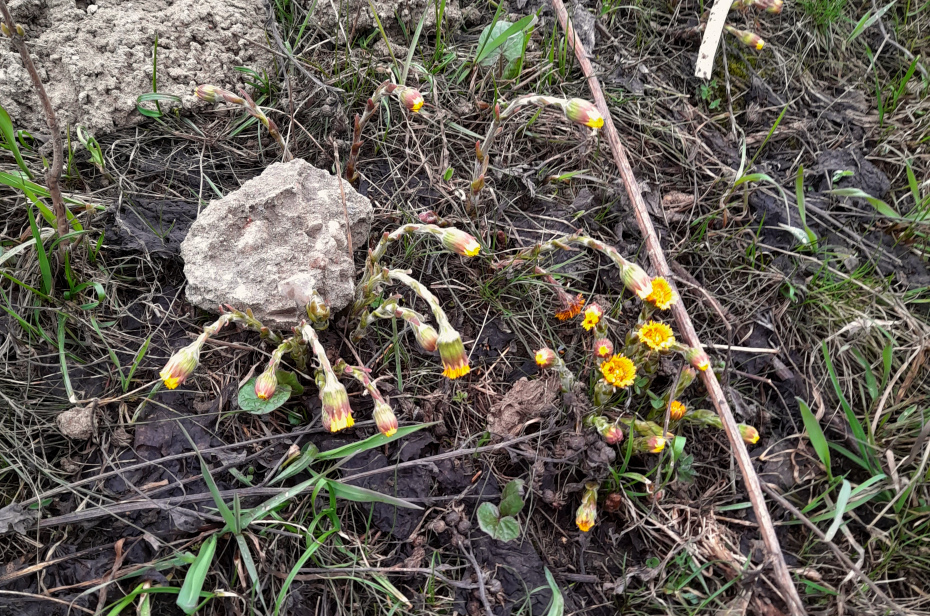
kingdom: Plantae
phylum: Tracheophyta
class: Magnoliopsida
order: Asterales
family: Asteraceae
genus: Tussilago
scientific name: Tussilago farfara
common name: Coltsfoot
